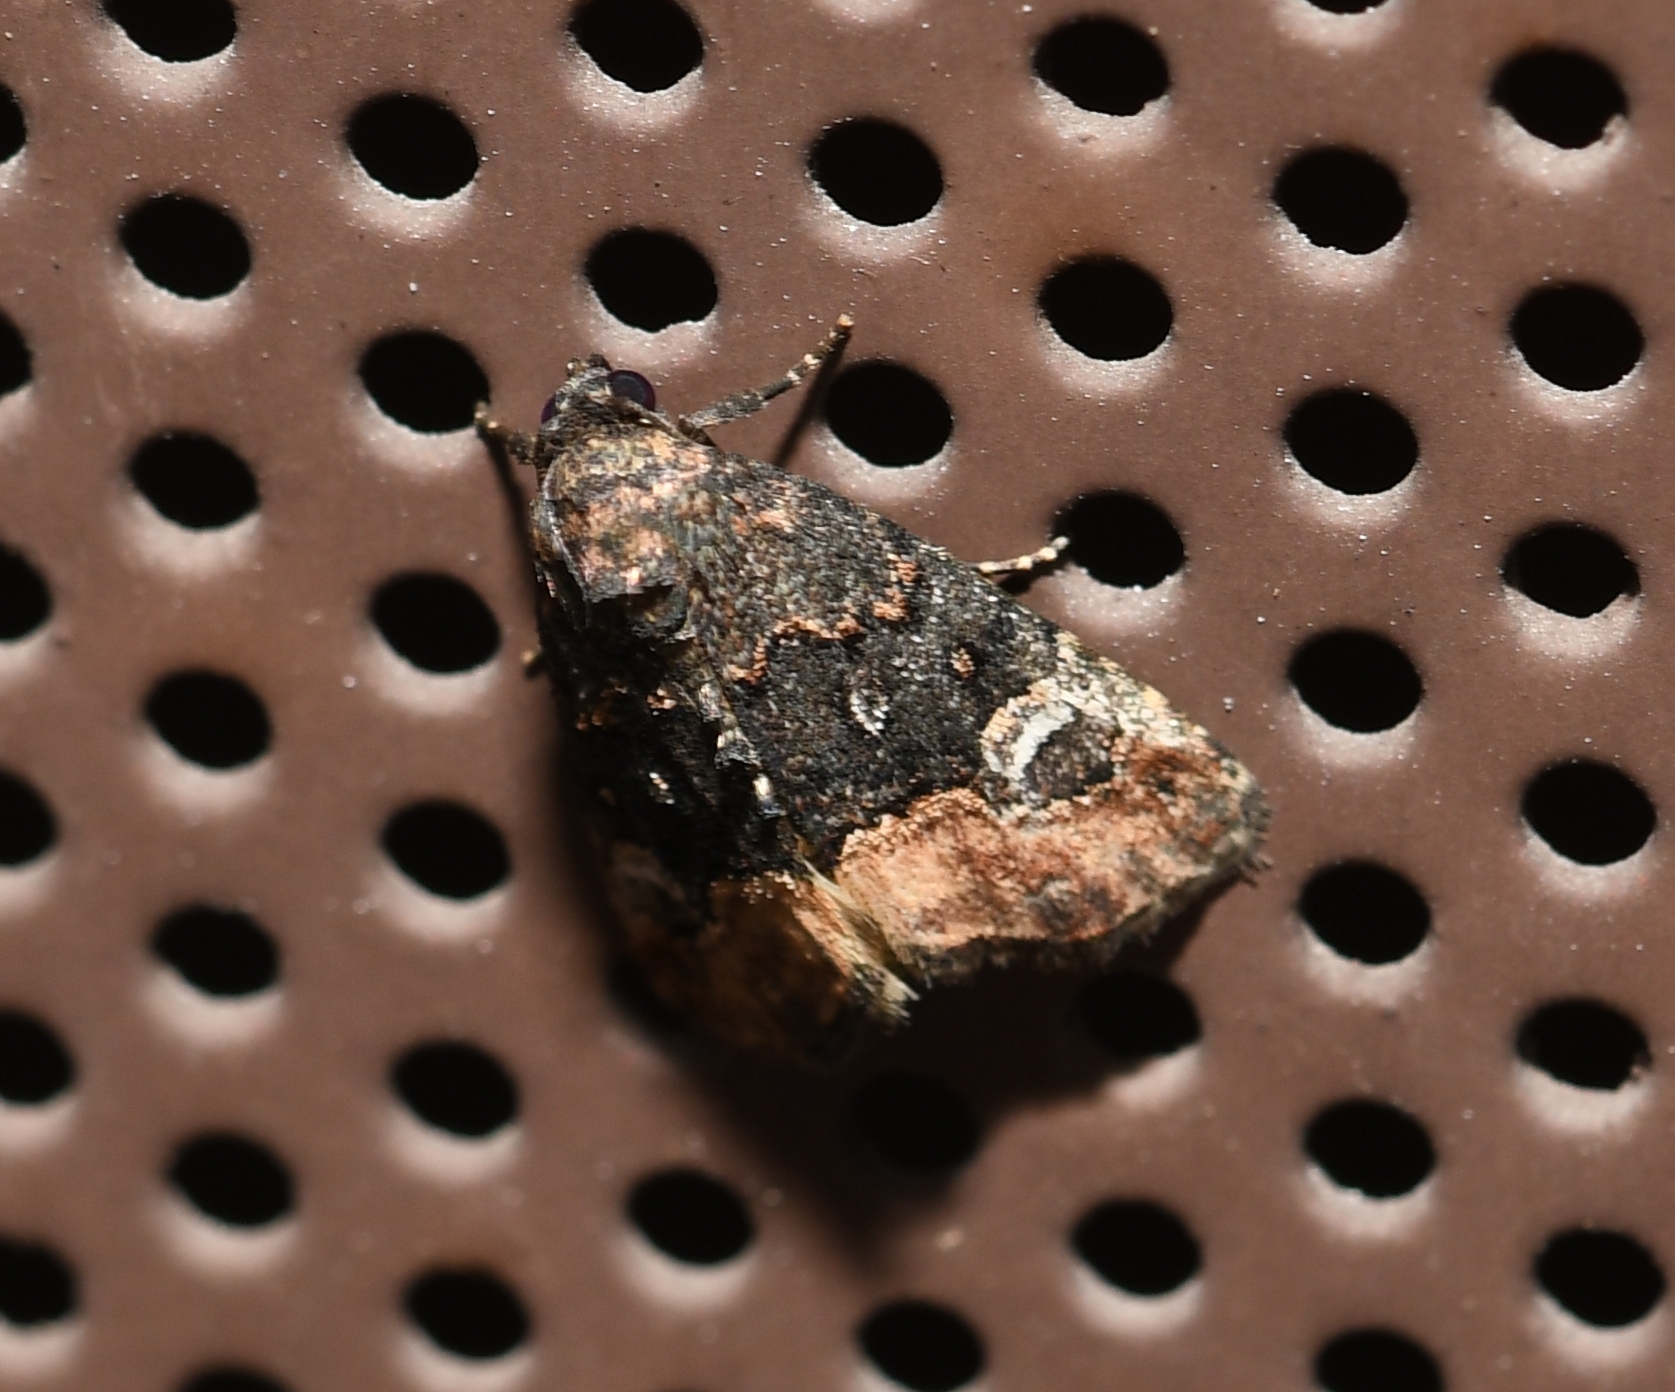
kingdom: Animalia
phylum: Arthropoda
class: Insecta
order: Lepidoptera
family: Noctuidae
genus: Ozarba
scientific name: Ozarba propera
